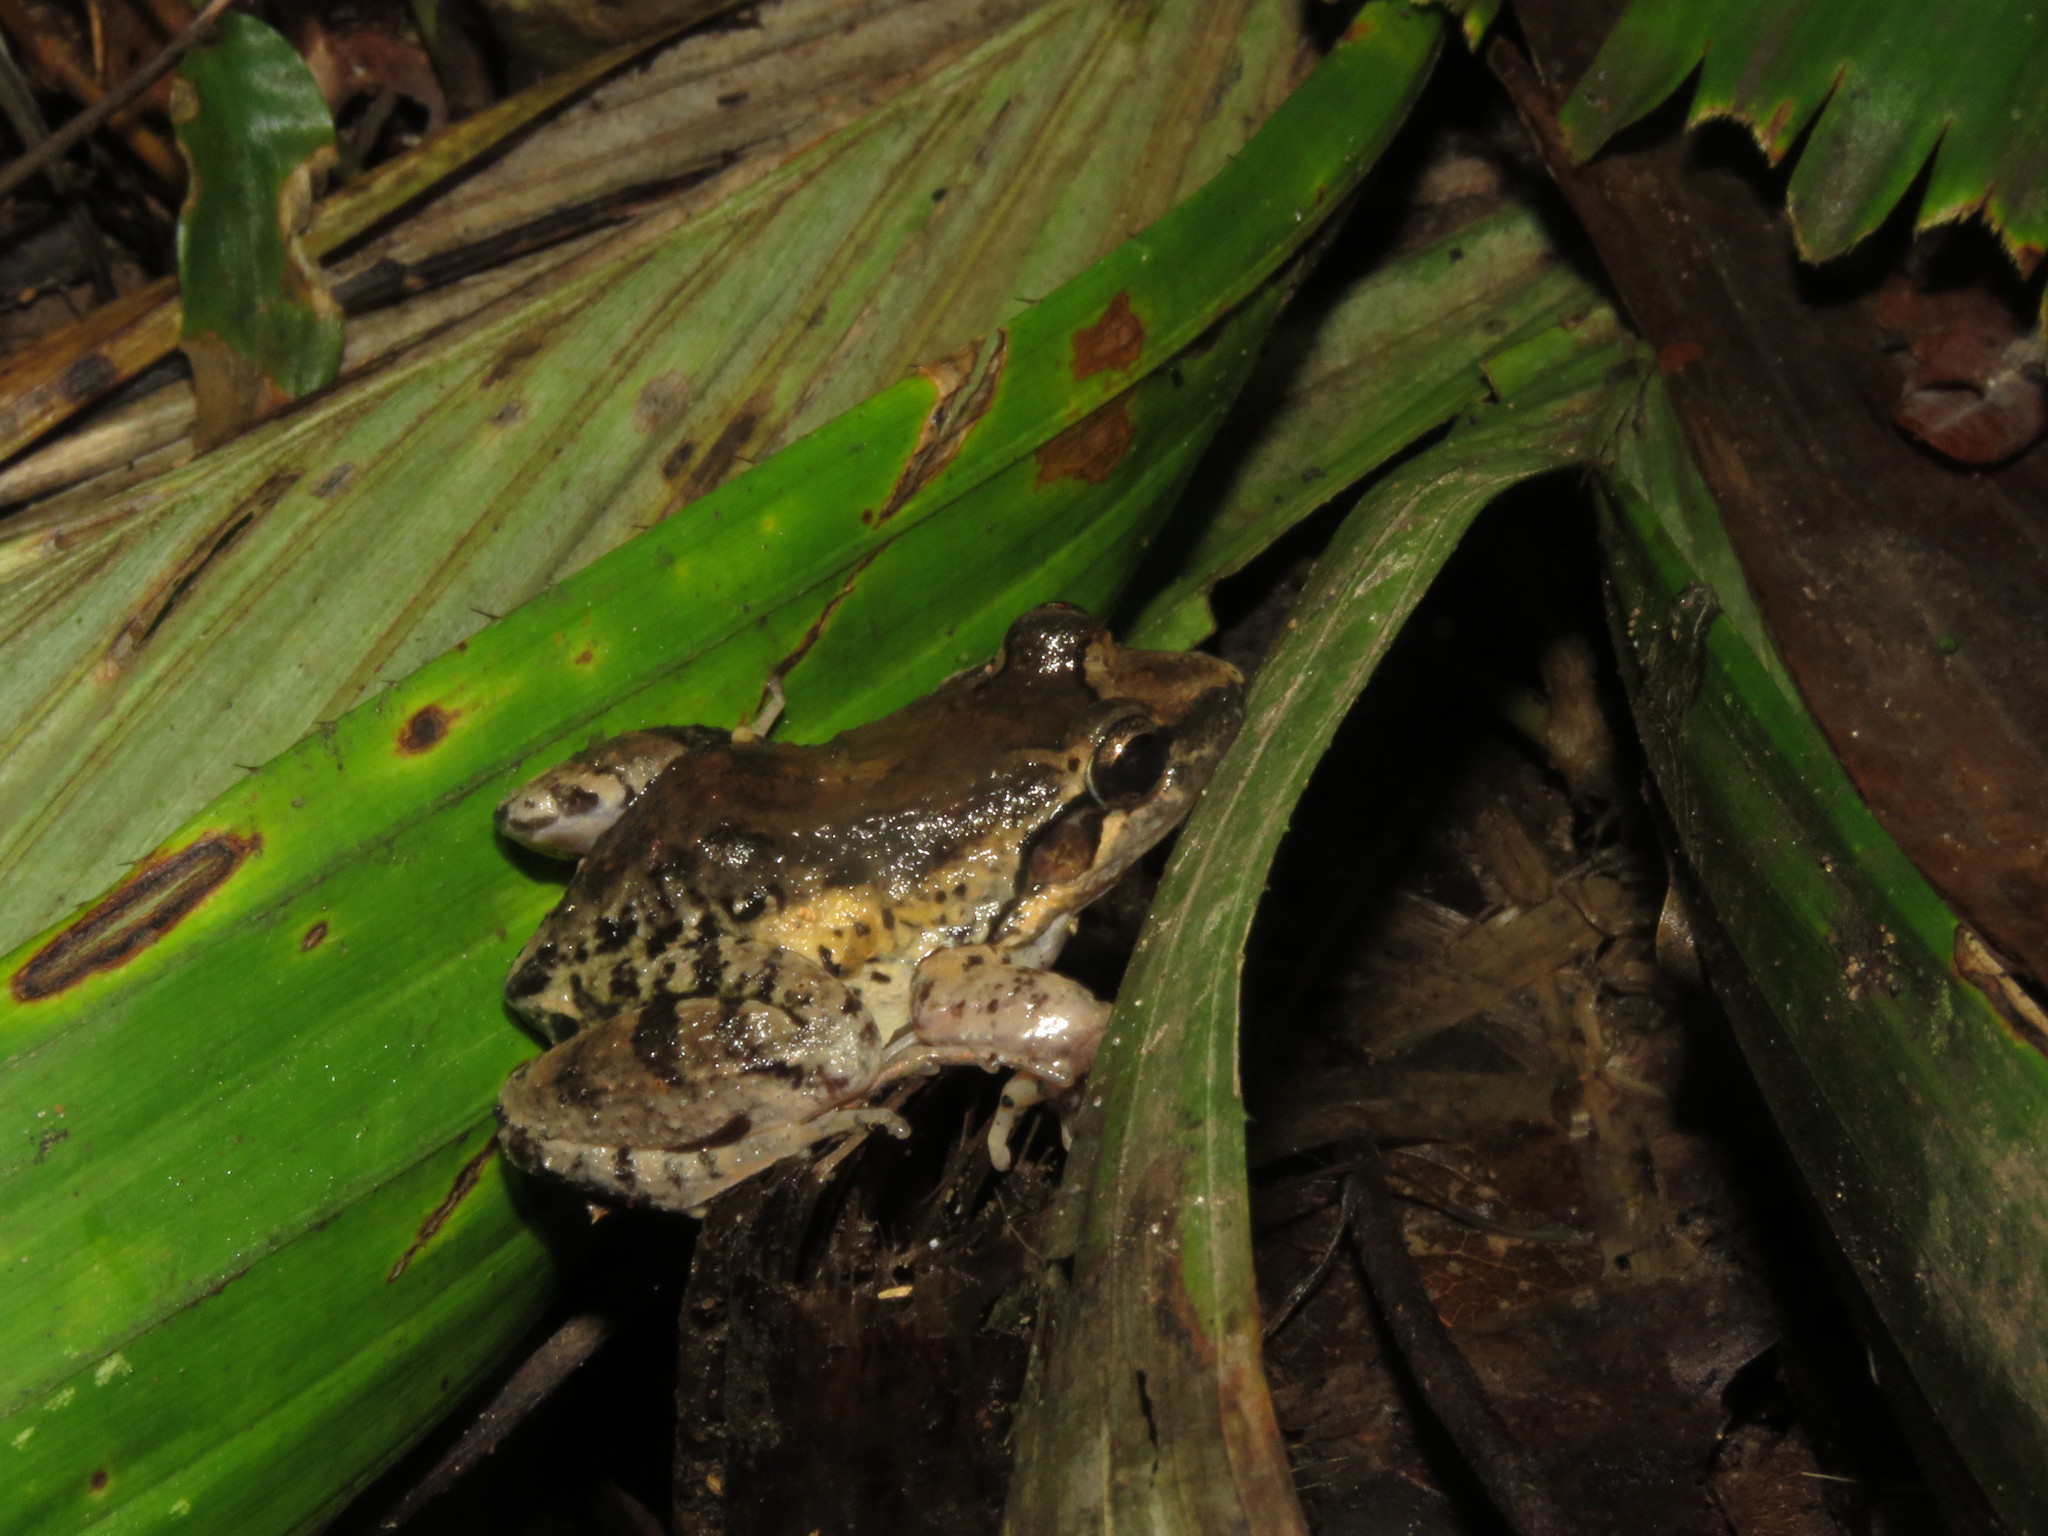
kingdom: Animalia
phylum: Chordata
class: Amphibia
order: Anura
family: Leptodactylidae
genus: Leptodactylus
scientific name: Leptodactylus petersii
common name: Peters' thin-toed frog
